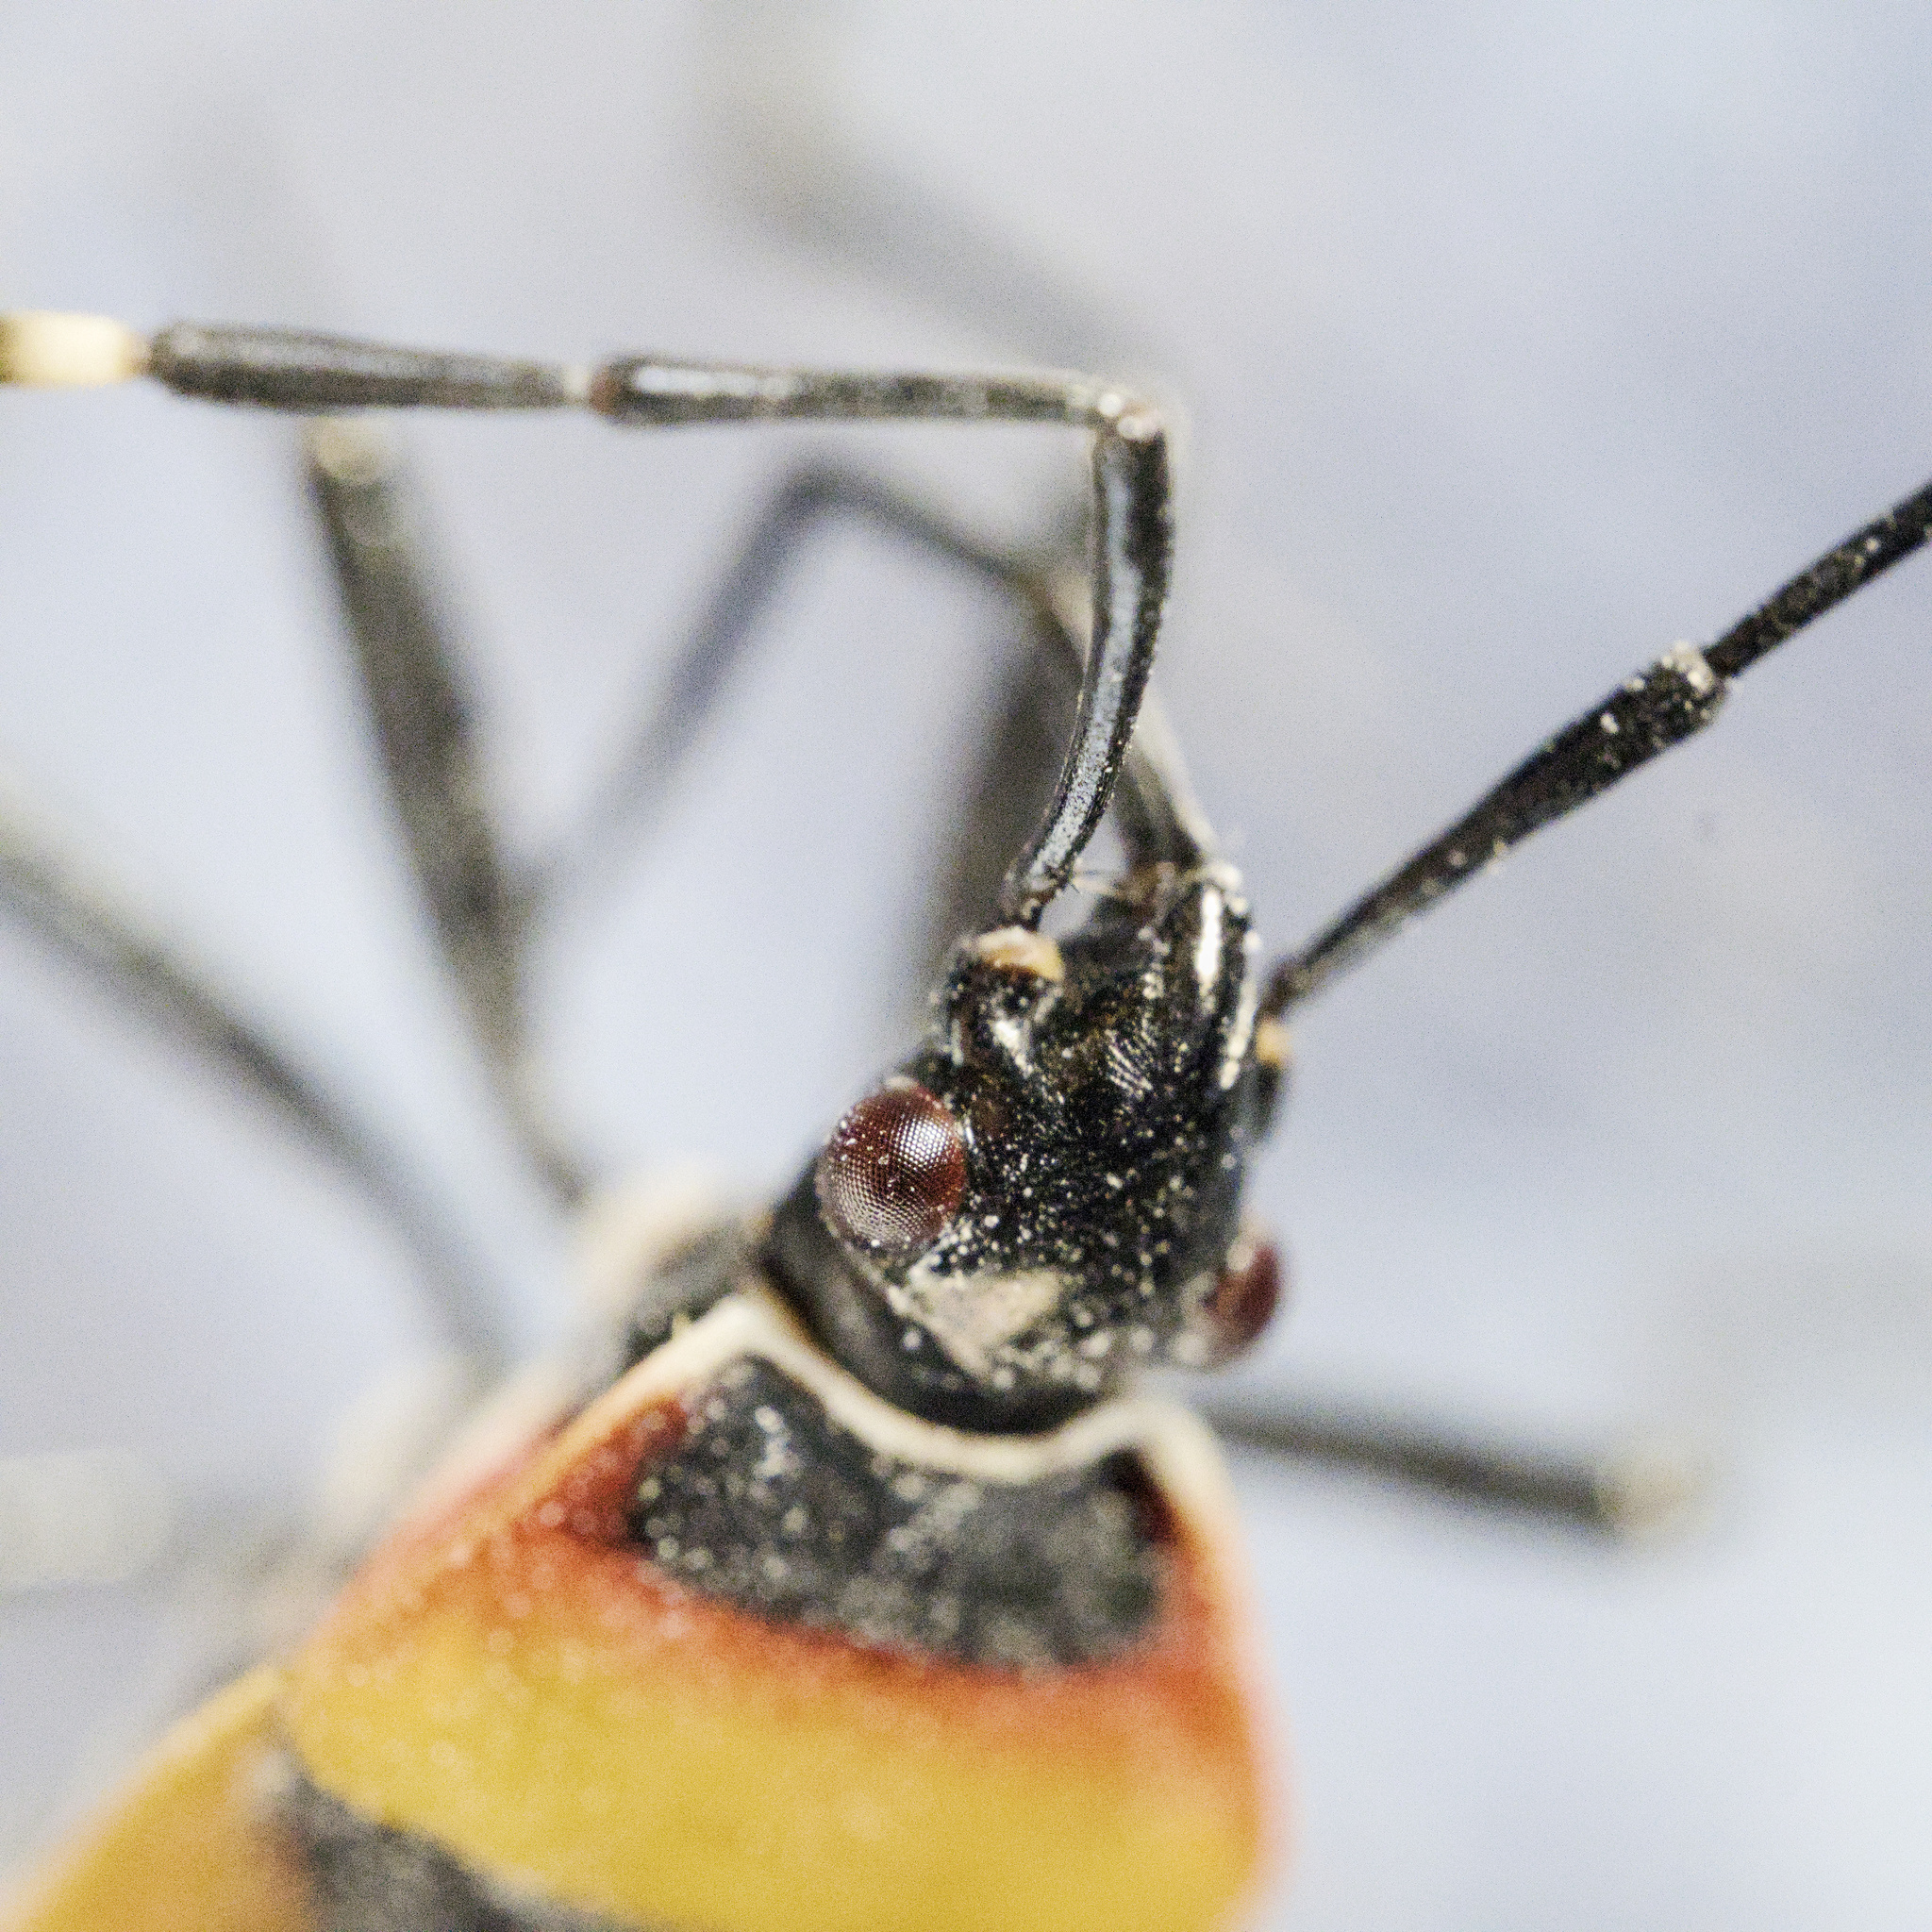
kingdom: Animalia
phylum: Arthropoda
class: Insecta
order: Hemiptera
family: Pyrrhocoridae
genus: Dindymus
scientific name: Dindymus
